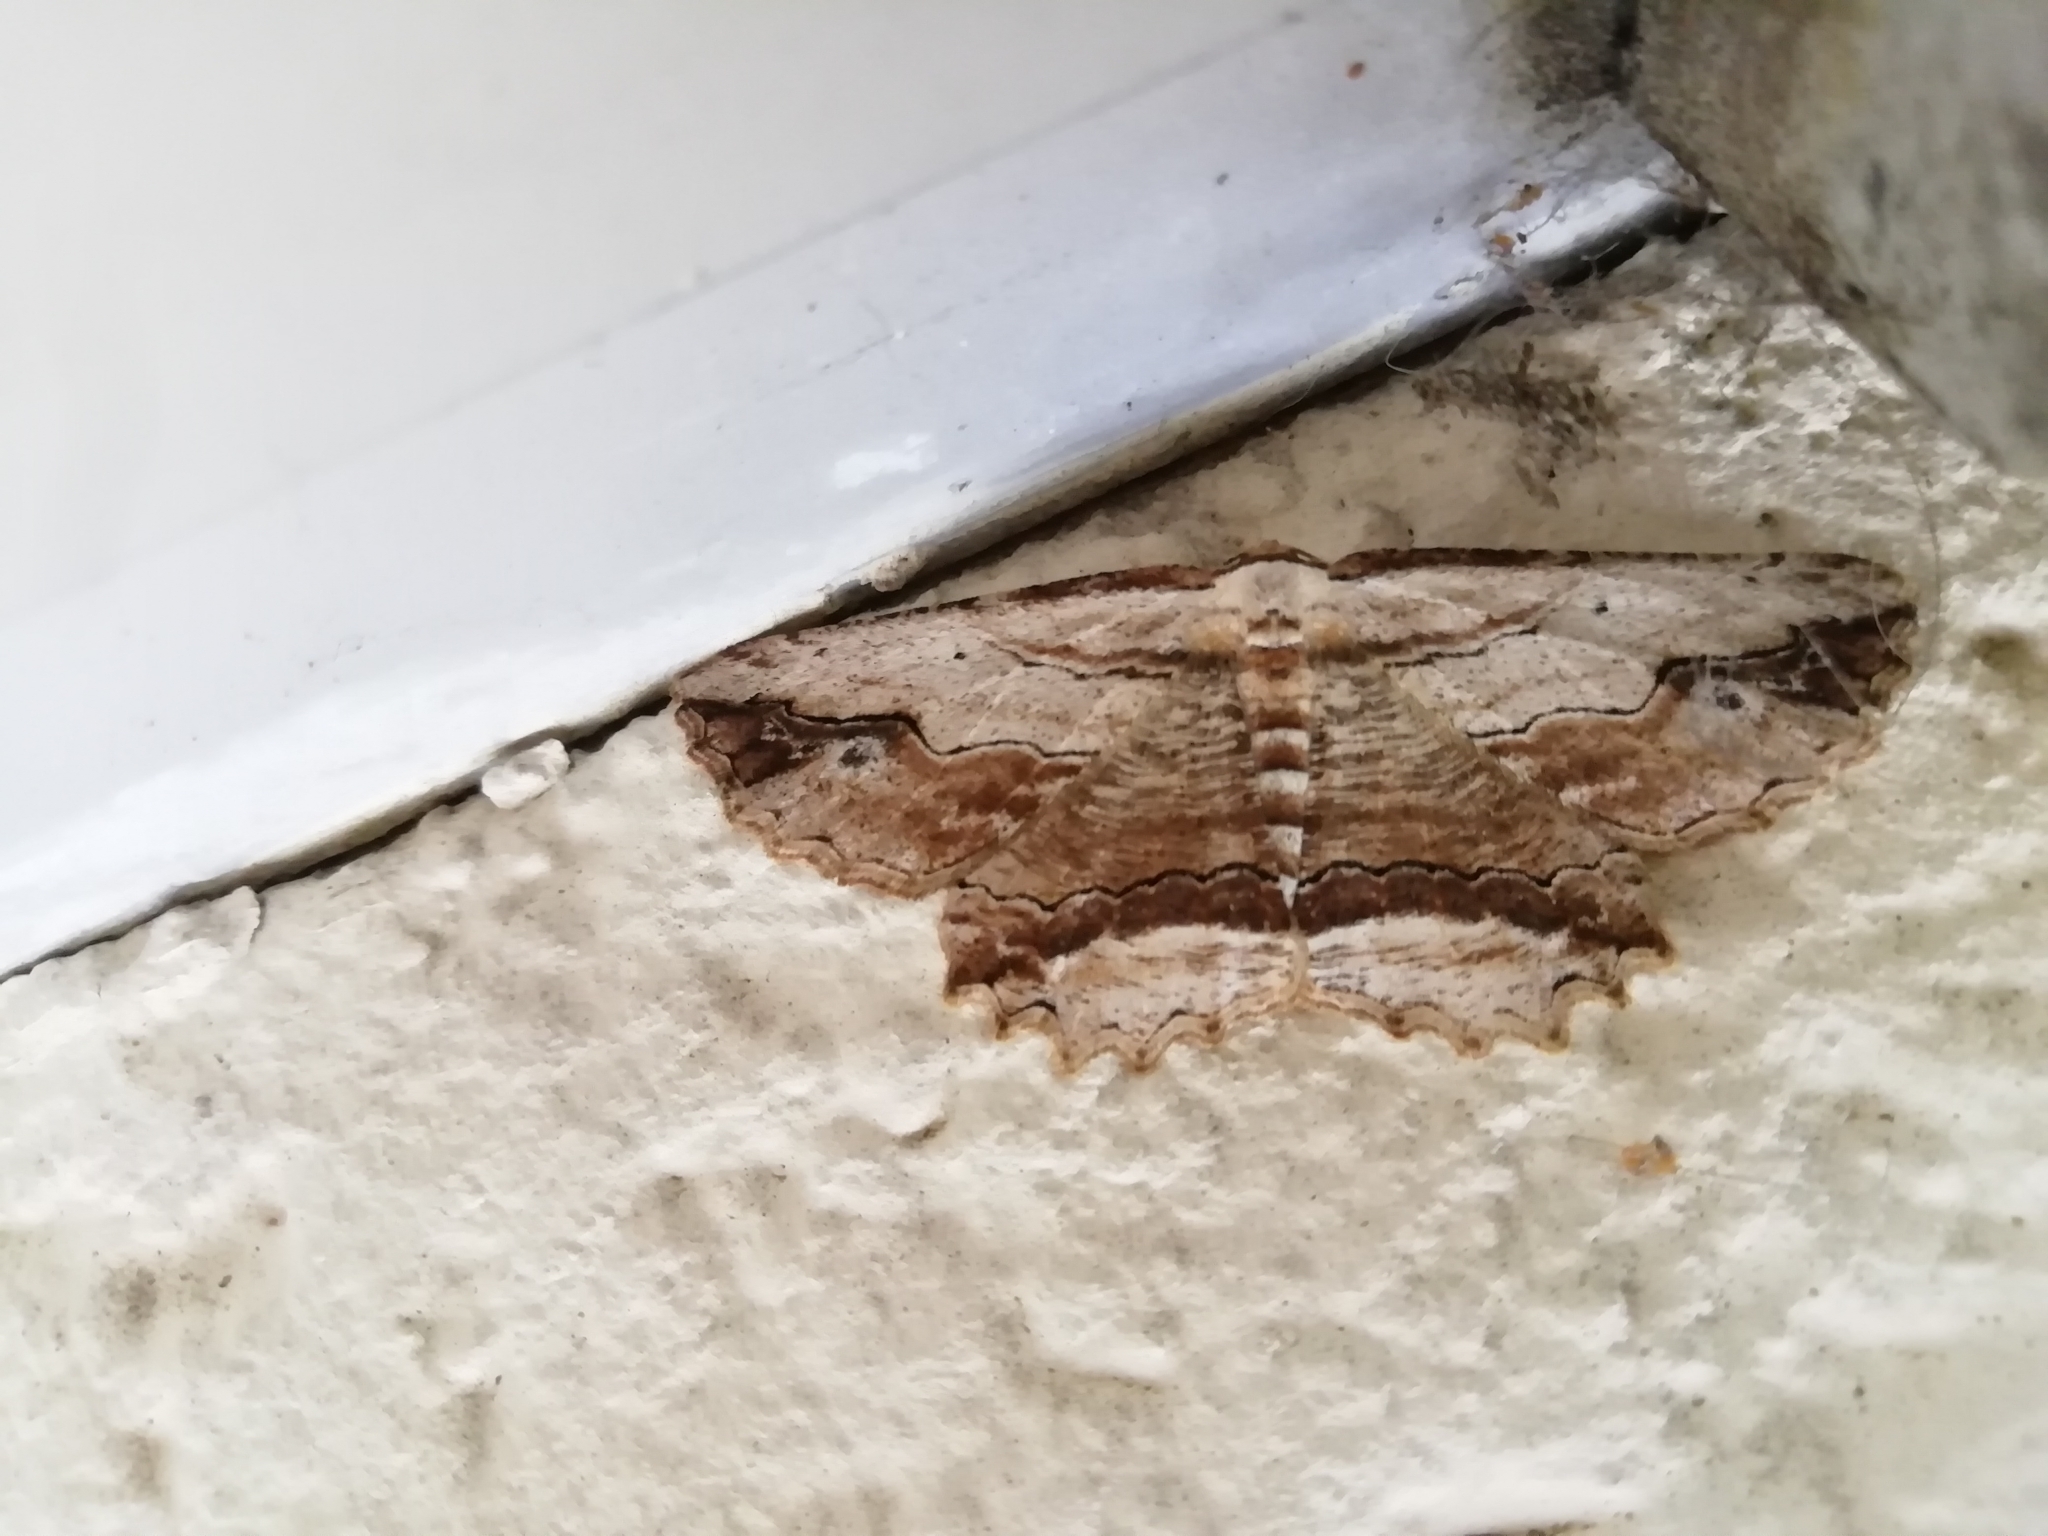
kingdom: Animalia
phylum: Arthropoda
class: Insecta
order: Lepidoptera
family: Geometridae
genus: Menophra
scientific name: Menophra abruptaria
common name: Waved umber
